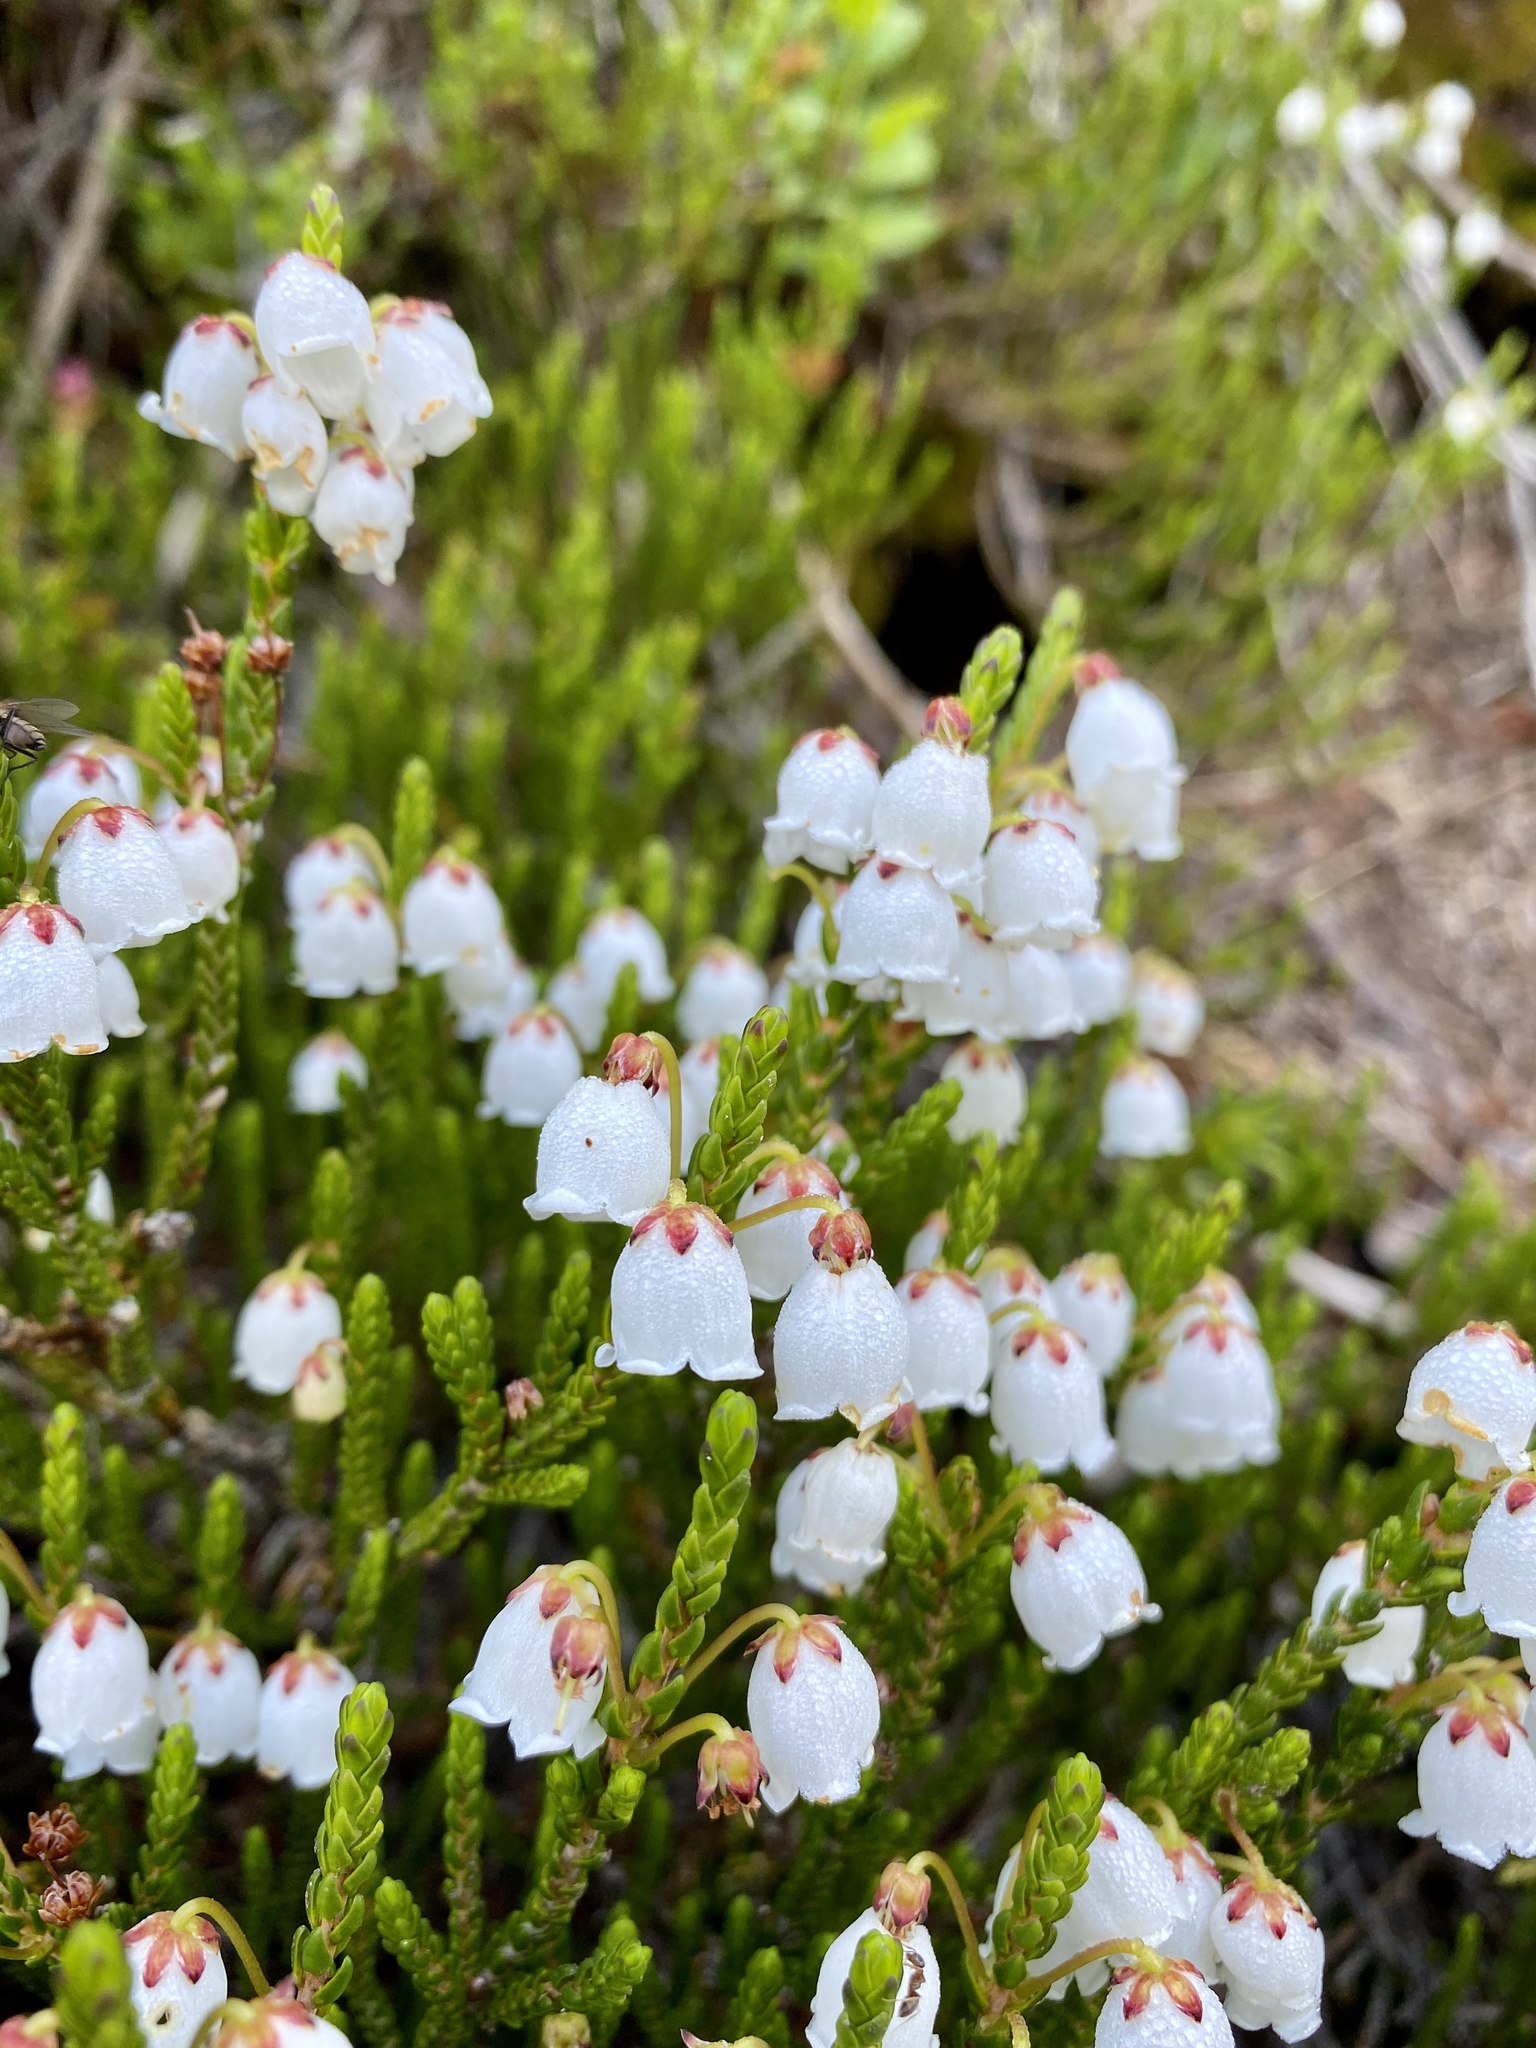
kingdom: Plantae
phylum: Tracheophyta
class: Magnoliopsida
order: Ericales
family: Ericaceae
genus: Cassiope
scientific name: Cassiope mertensiana
